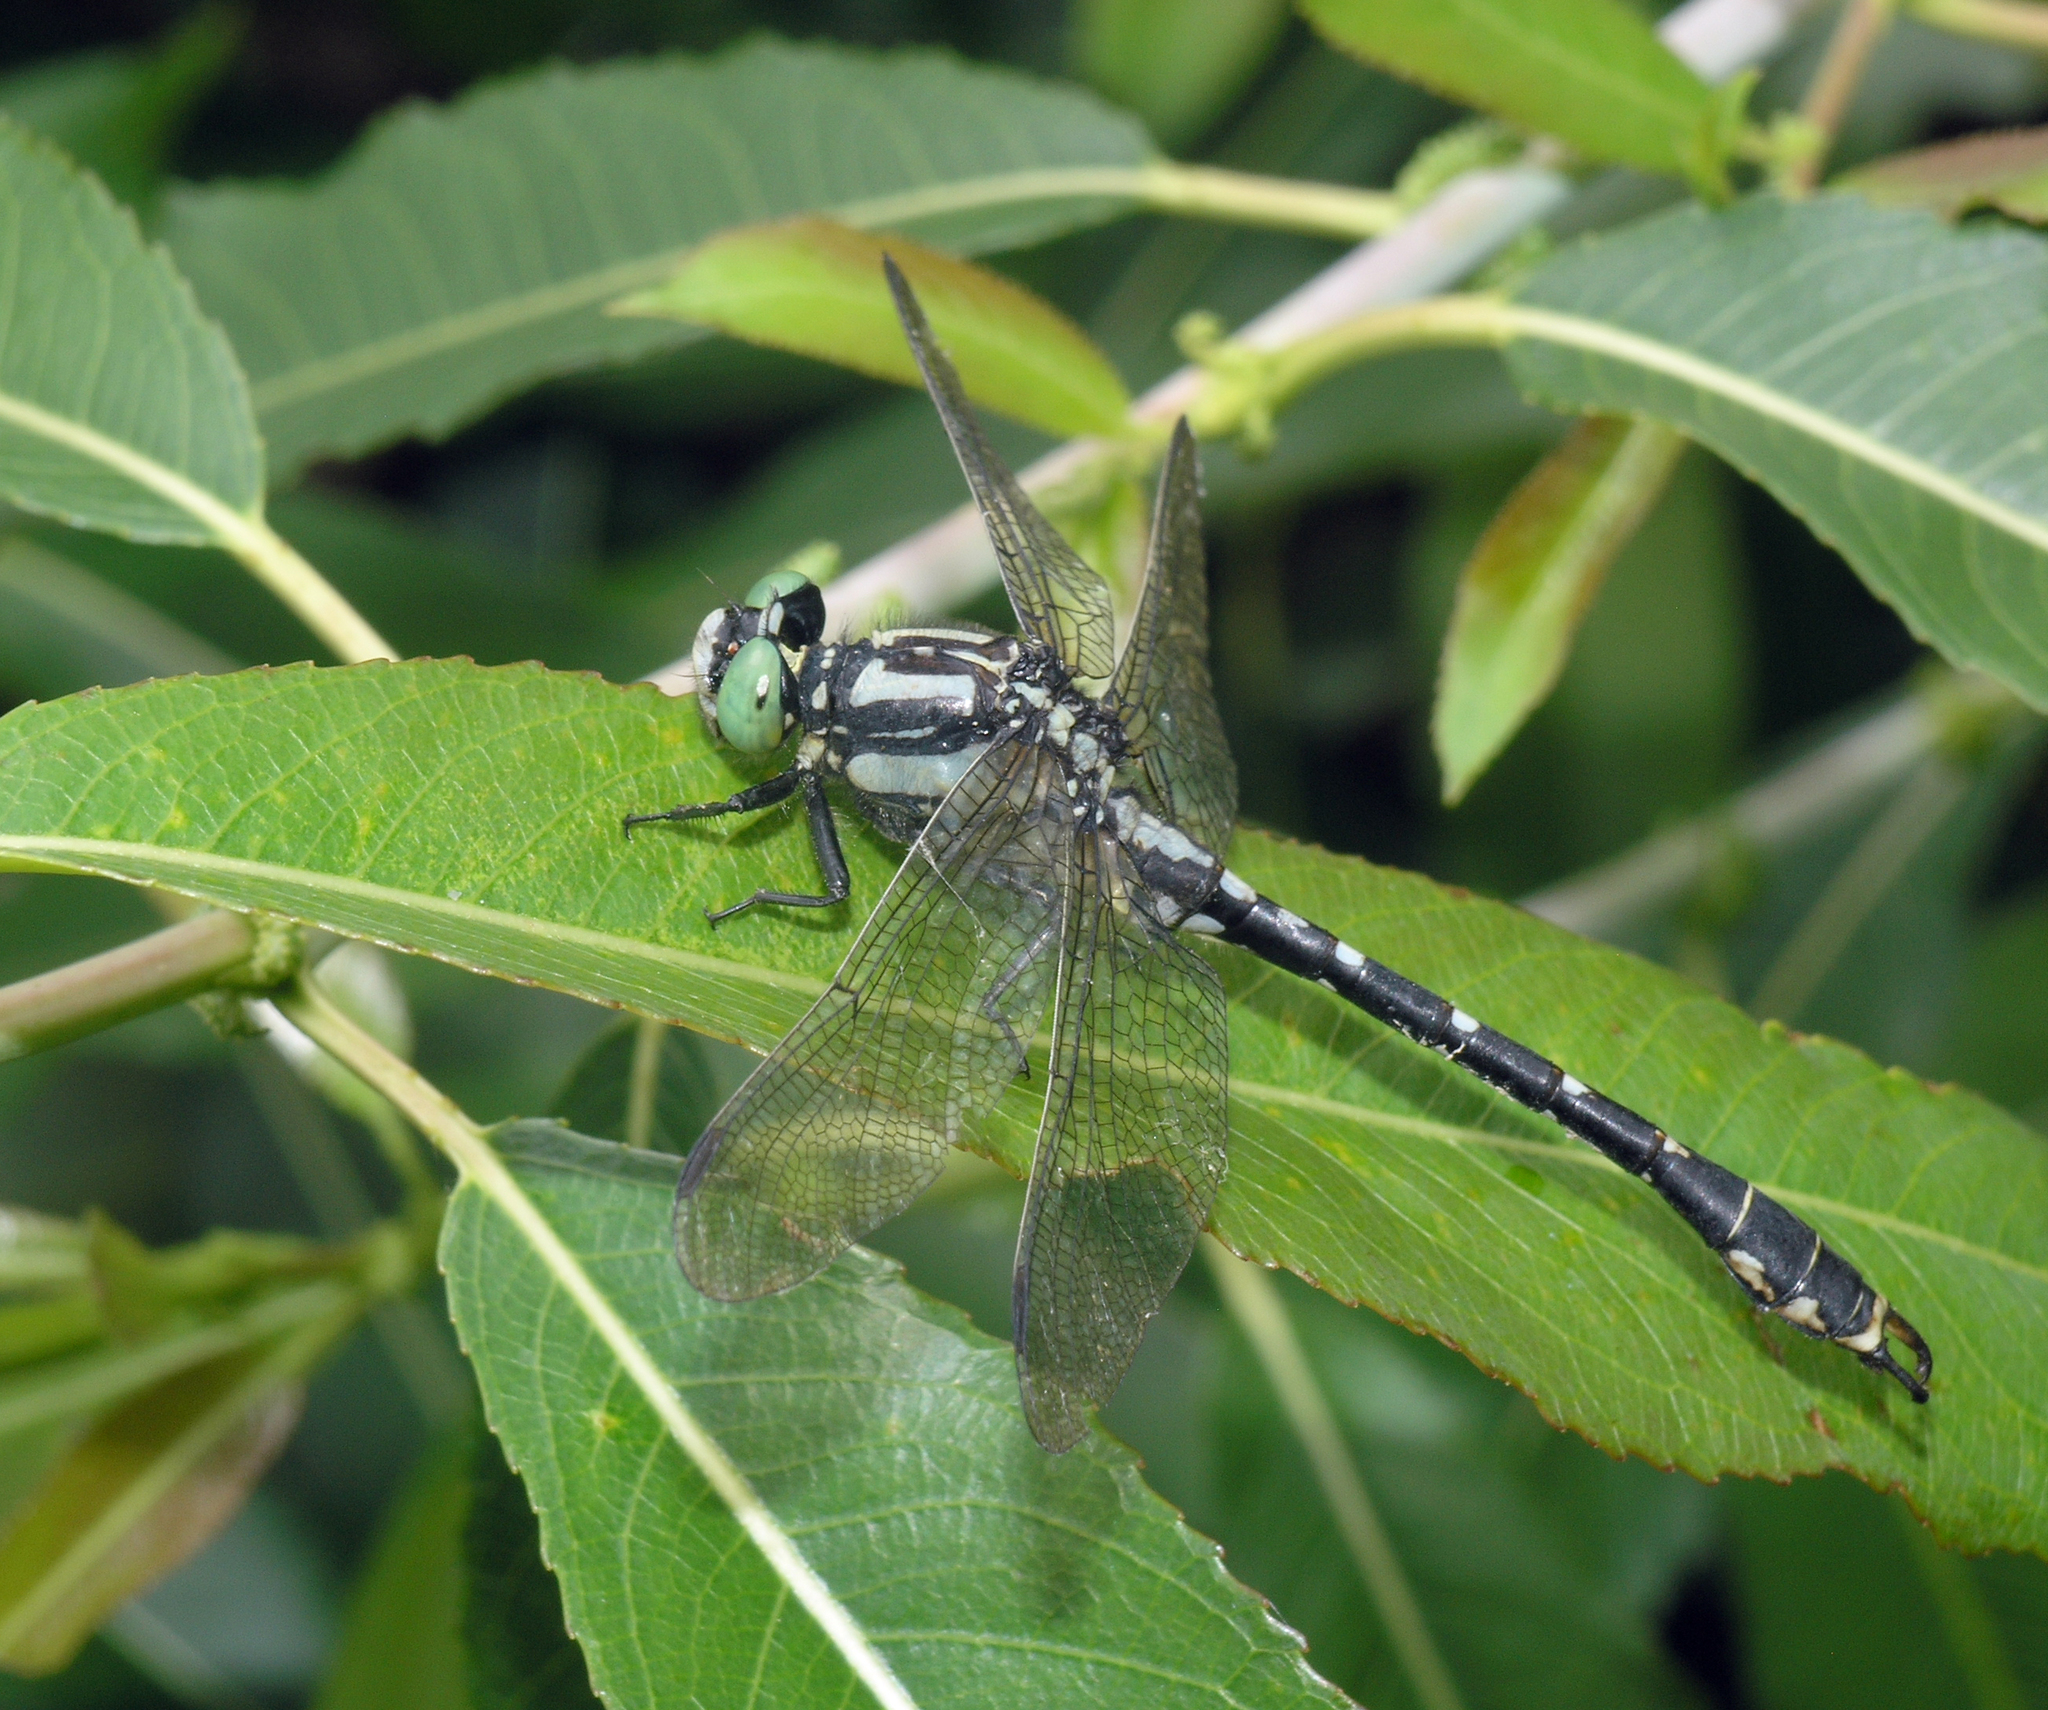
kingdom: Animalia
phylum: Arthropoda
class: Insecta
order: Odonata
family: Gomphidae
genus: Nihonogomphus
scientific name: Nihonogomphus ruptus
